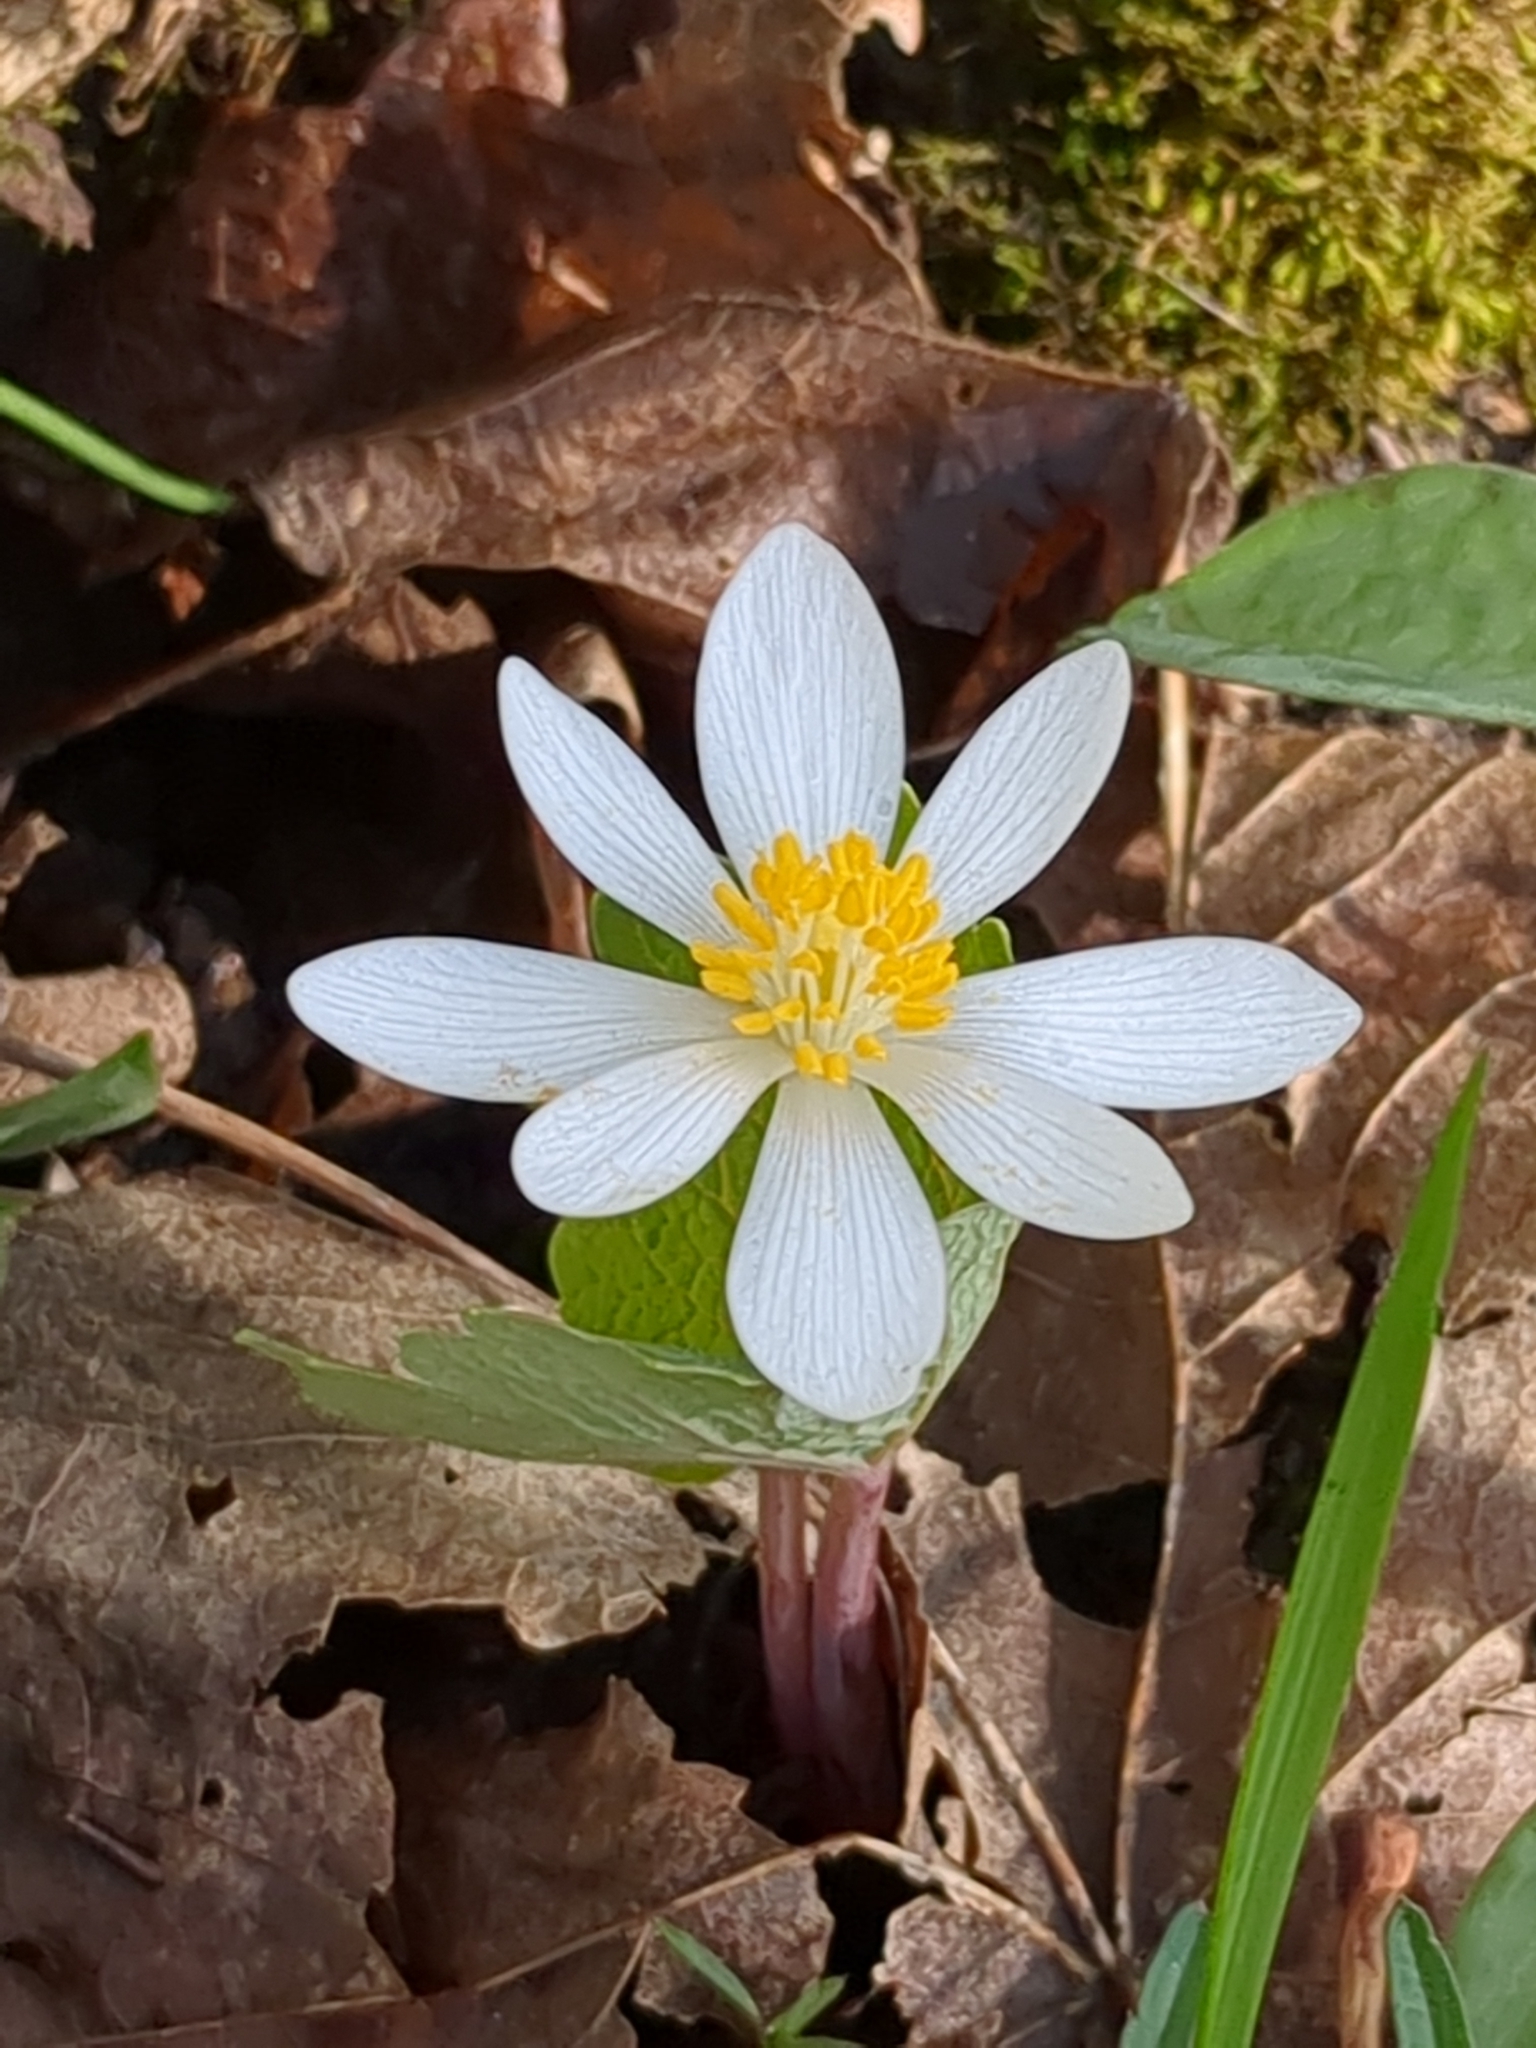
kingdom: Plantae
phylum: Tracheophyta
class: Magnoliopsida
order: Ranunculales
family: Papaveraceae
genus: Sanguinaria
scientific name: Sanguinaria canadensis
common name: Bloodroot
